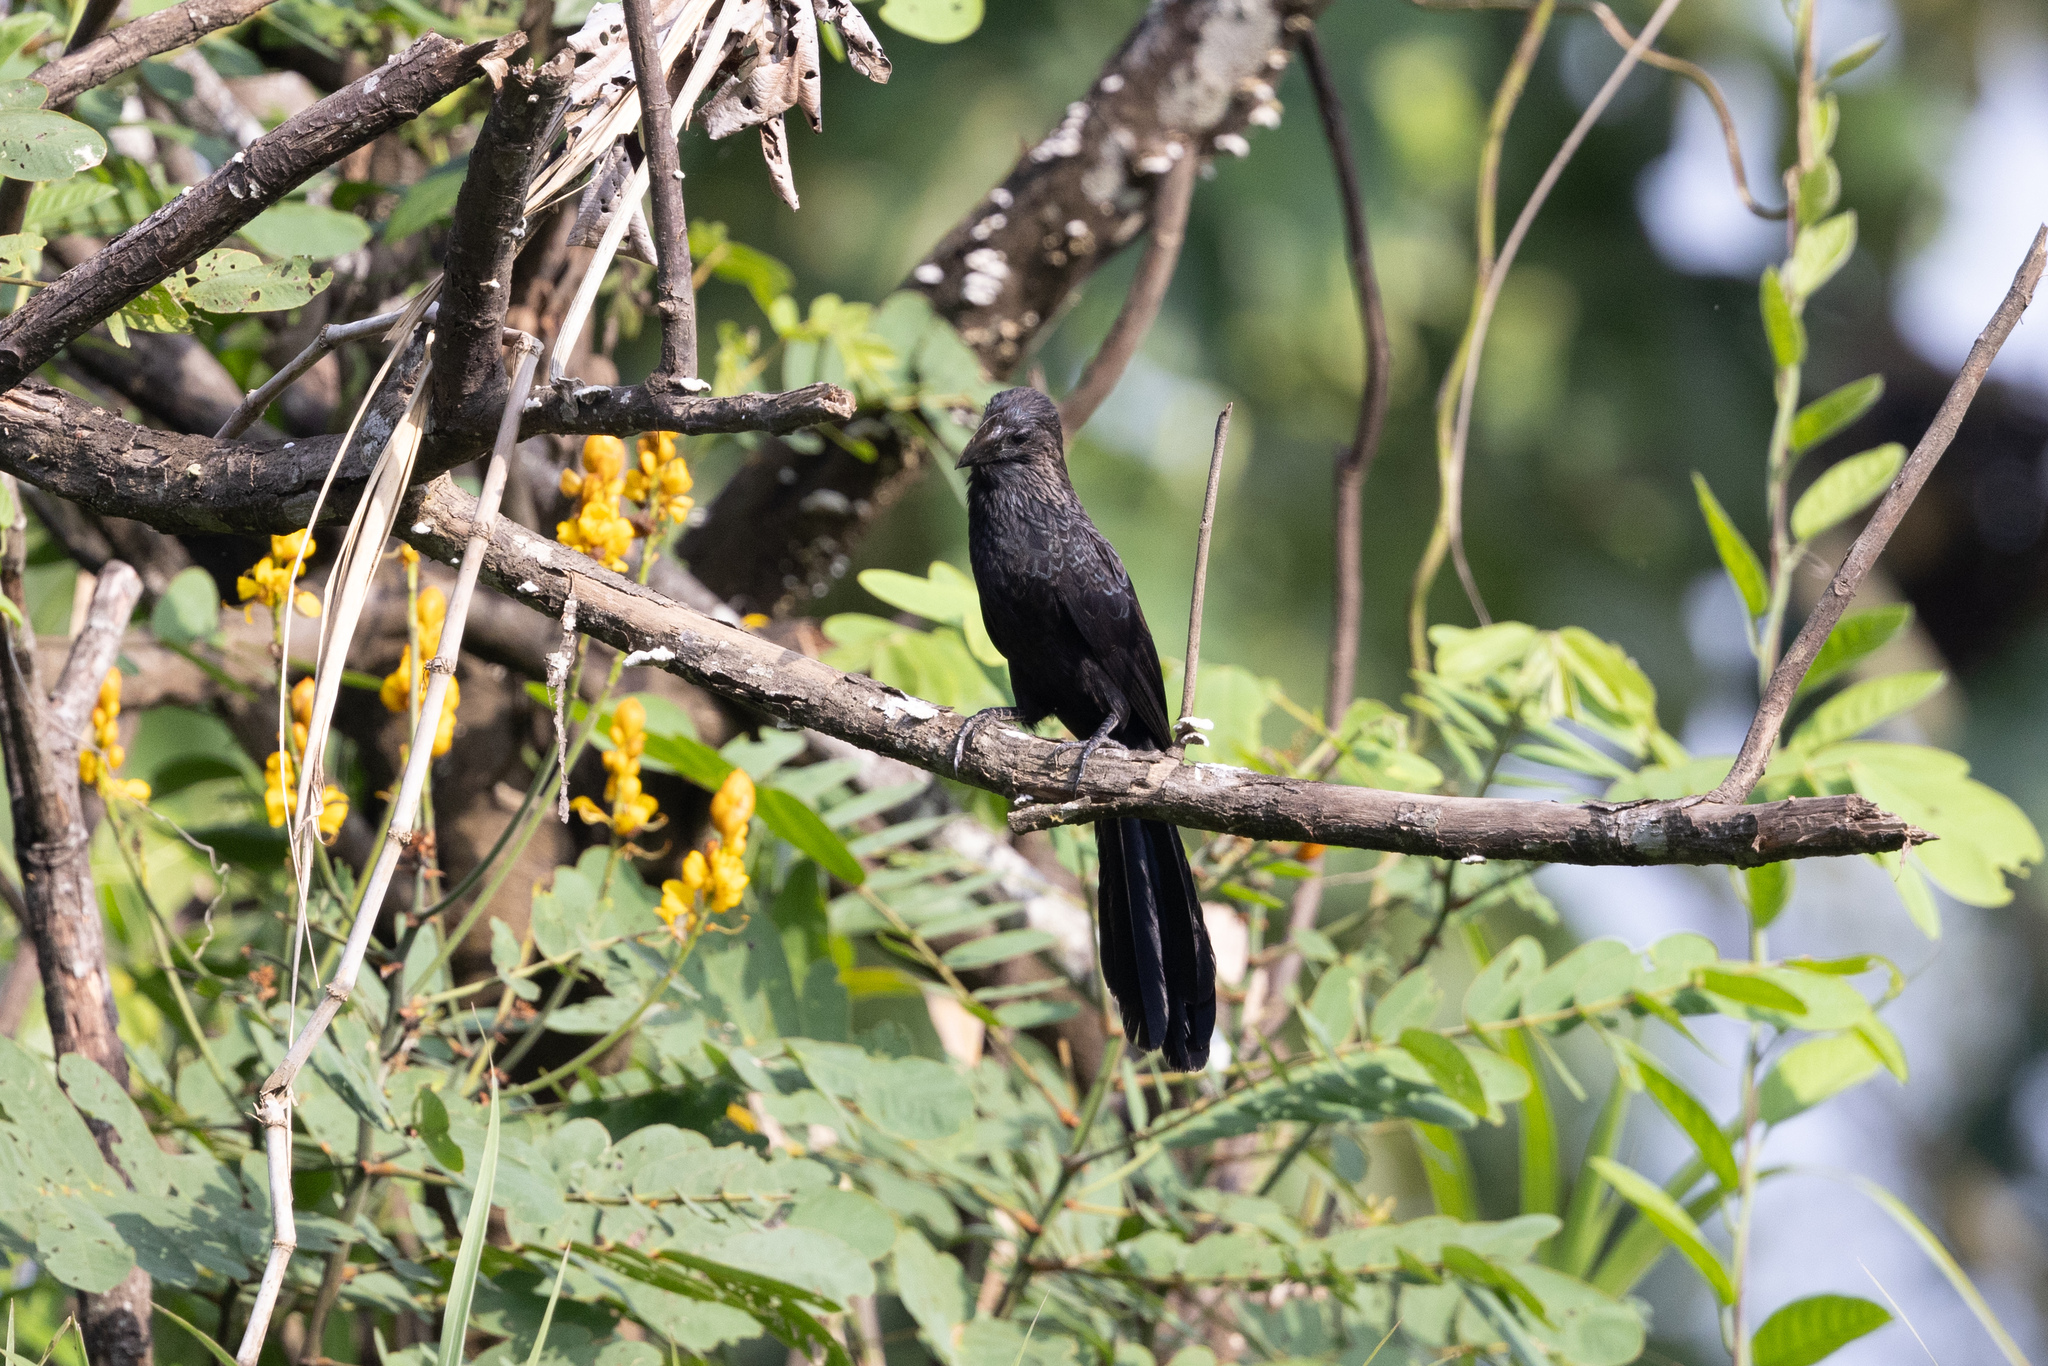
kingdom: Animalia
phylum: Chordata
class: Aves
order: Cuculiformes
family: Cuculidae
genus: Crotophaga
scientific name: Crotophaga ani
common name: Smooth-billed ani
